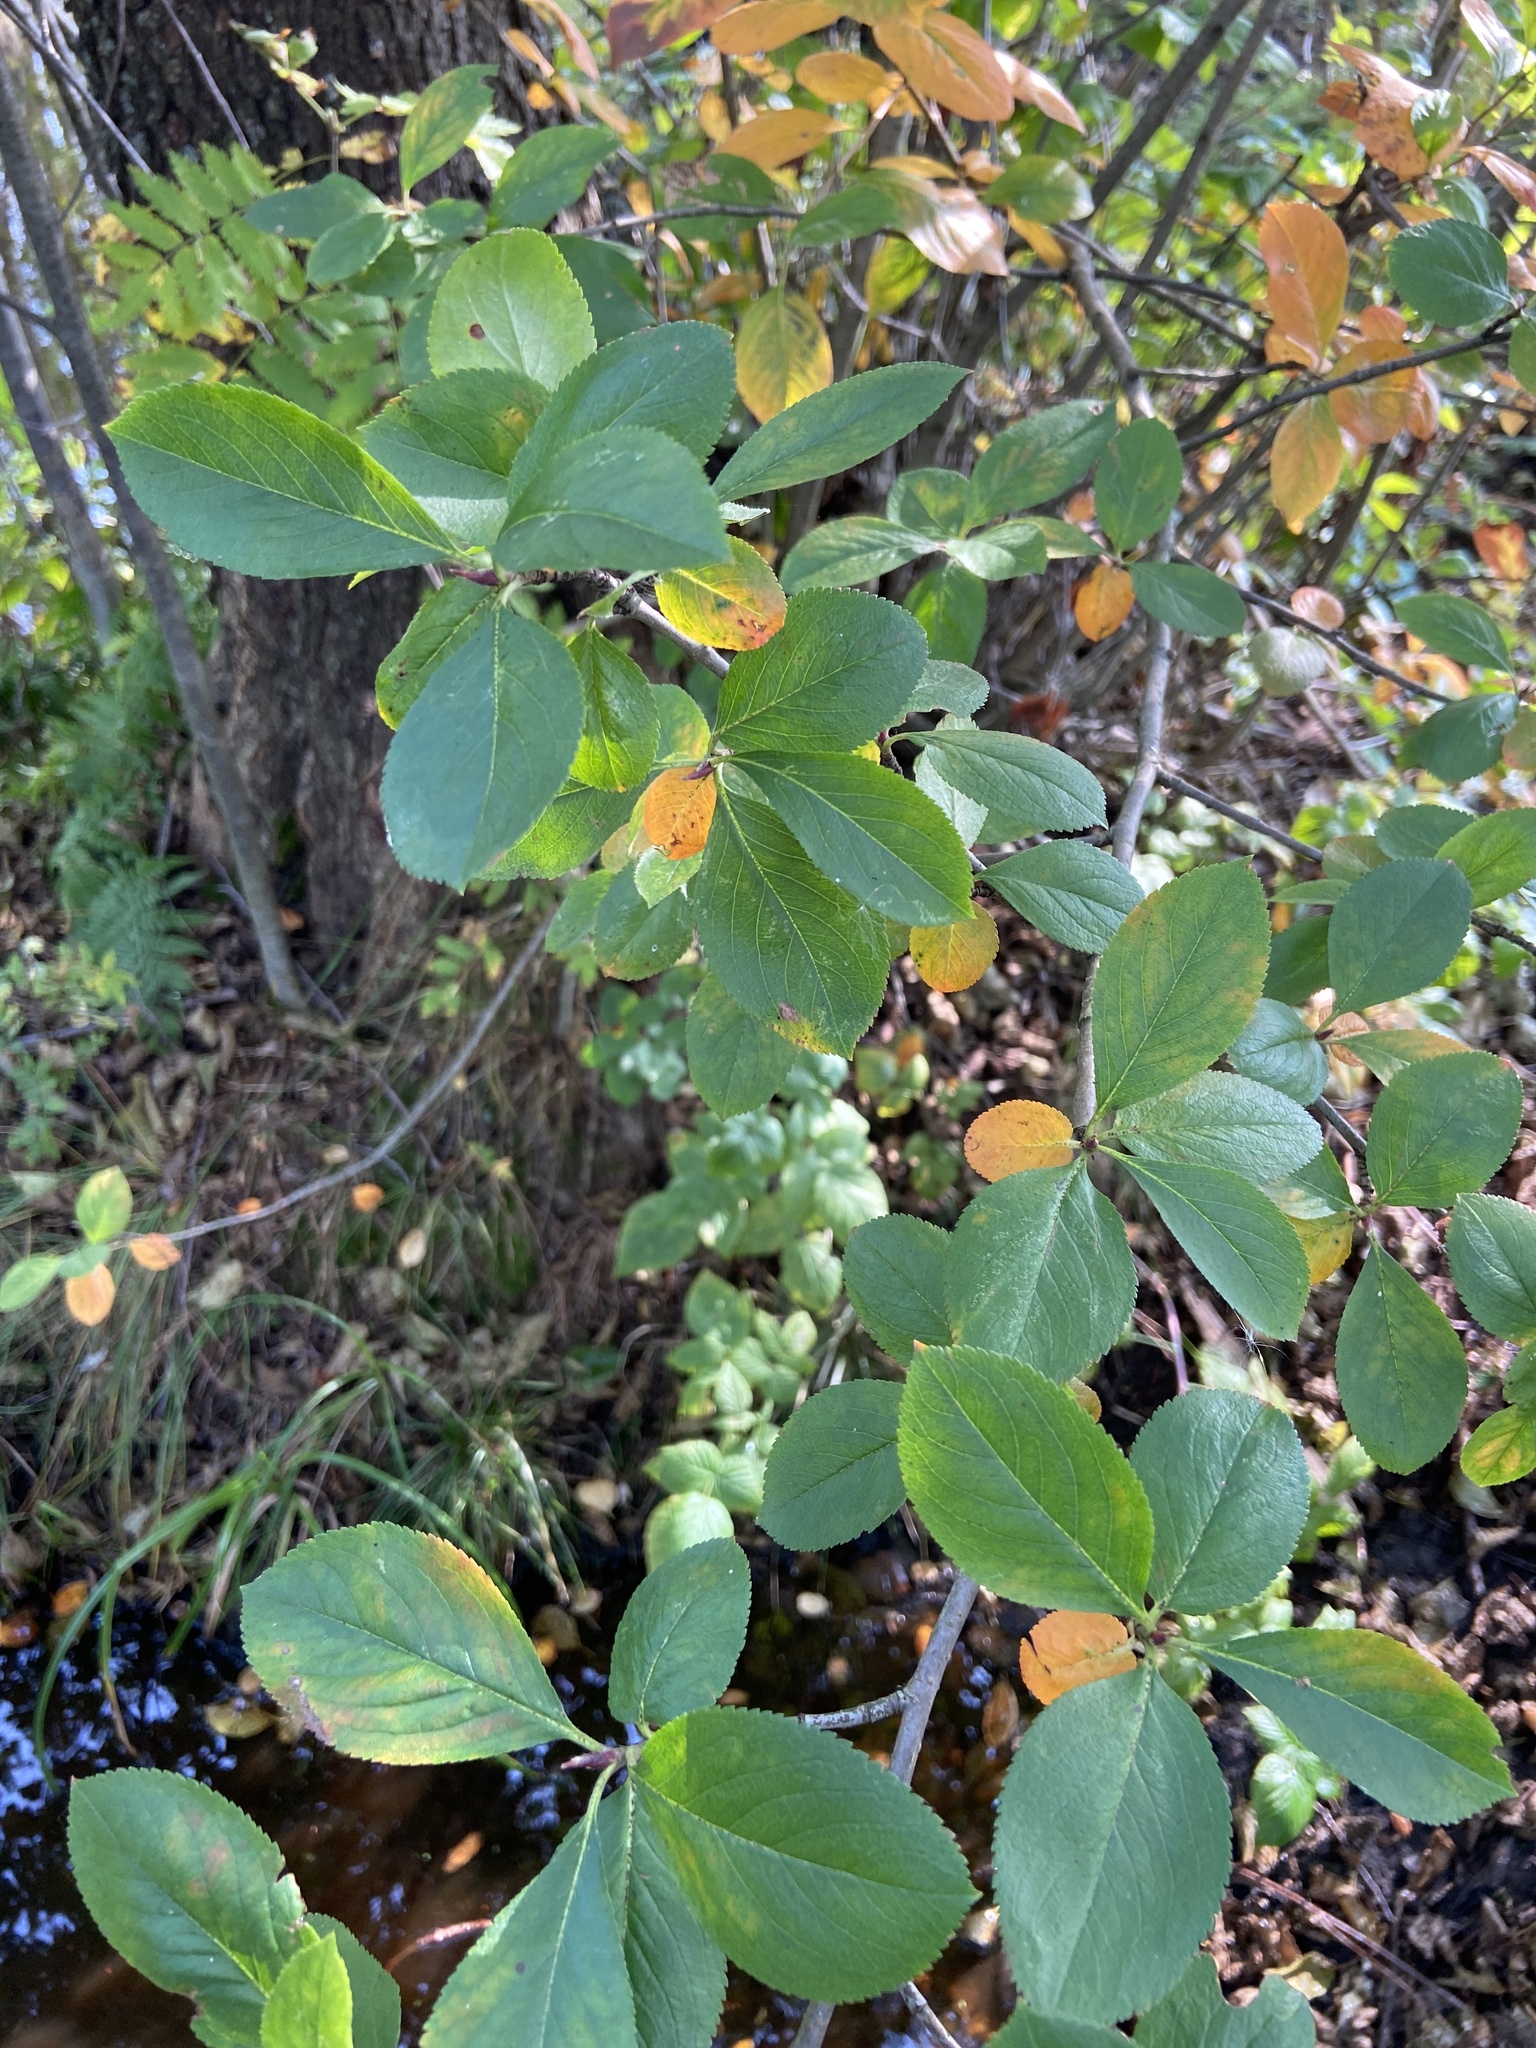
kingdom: Plantae
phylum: Tracheophyta
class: Magnoliopsida
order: Rosales
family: Rosaceae
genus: Sorbaronia
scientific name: Sorbaronia arsenii
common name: Arsène's mountain-ash
